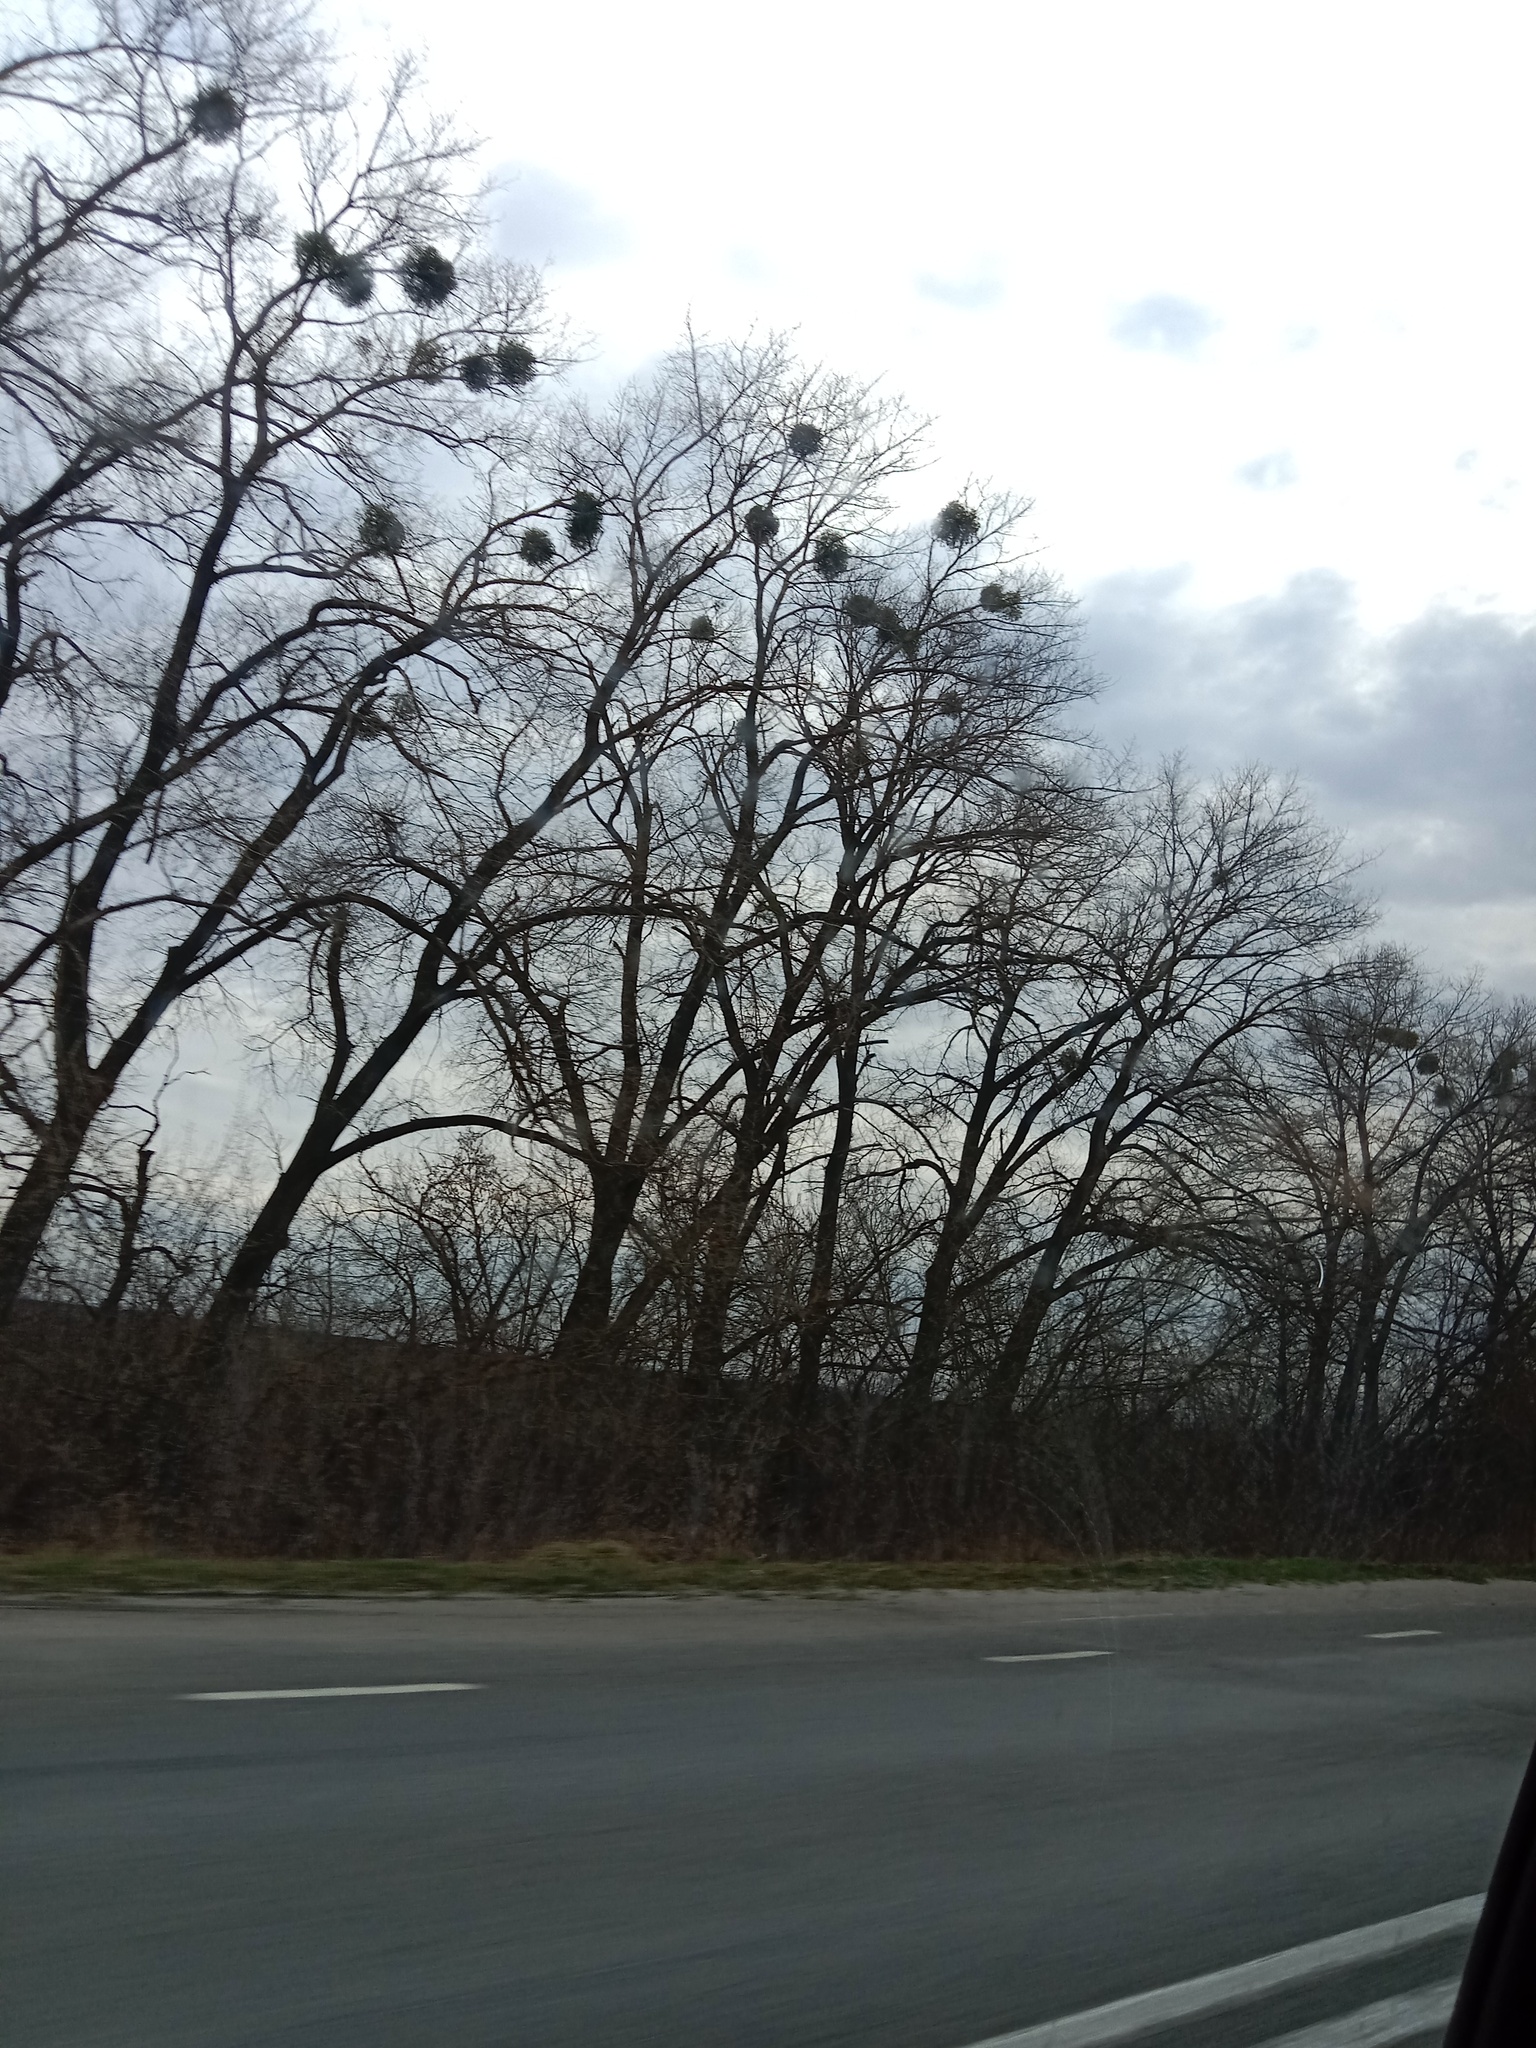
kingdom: Plantae
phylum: Tracheophyta
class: Magnoliopsida
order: Santalales
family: Viscaceae
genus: Viscum
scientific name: Viscum album
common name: Mistletoe
